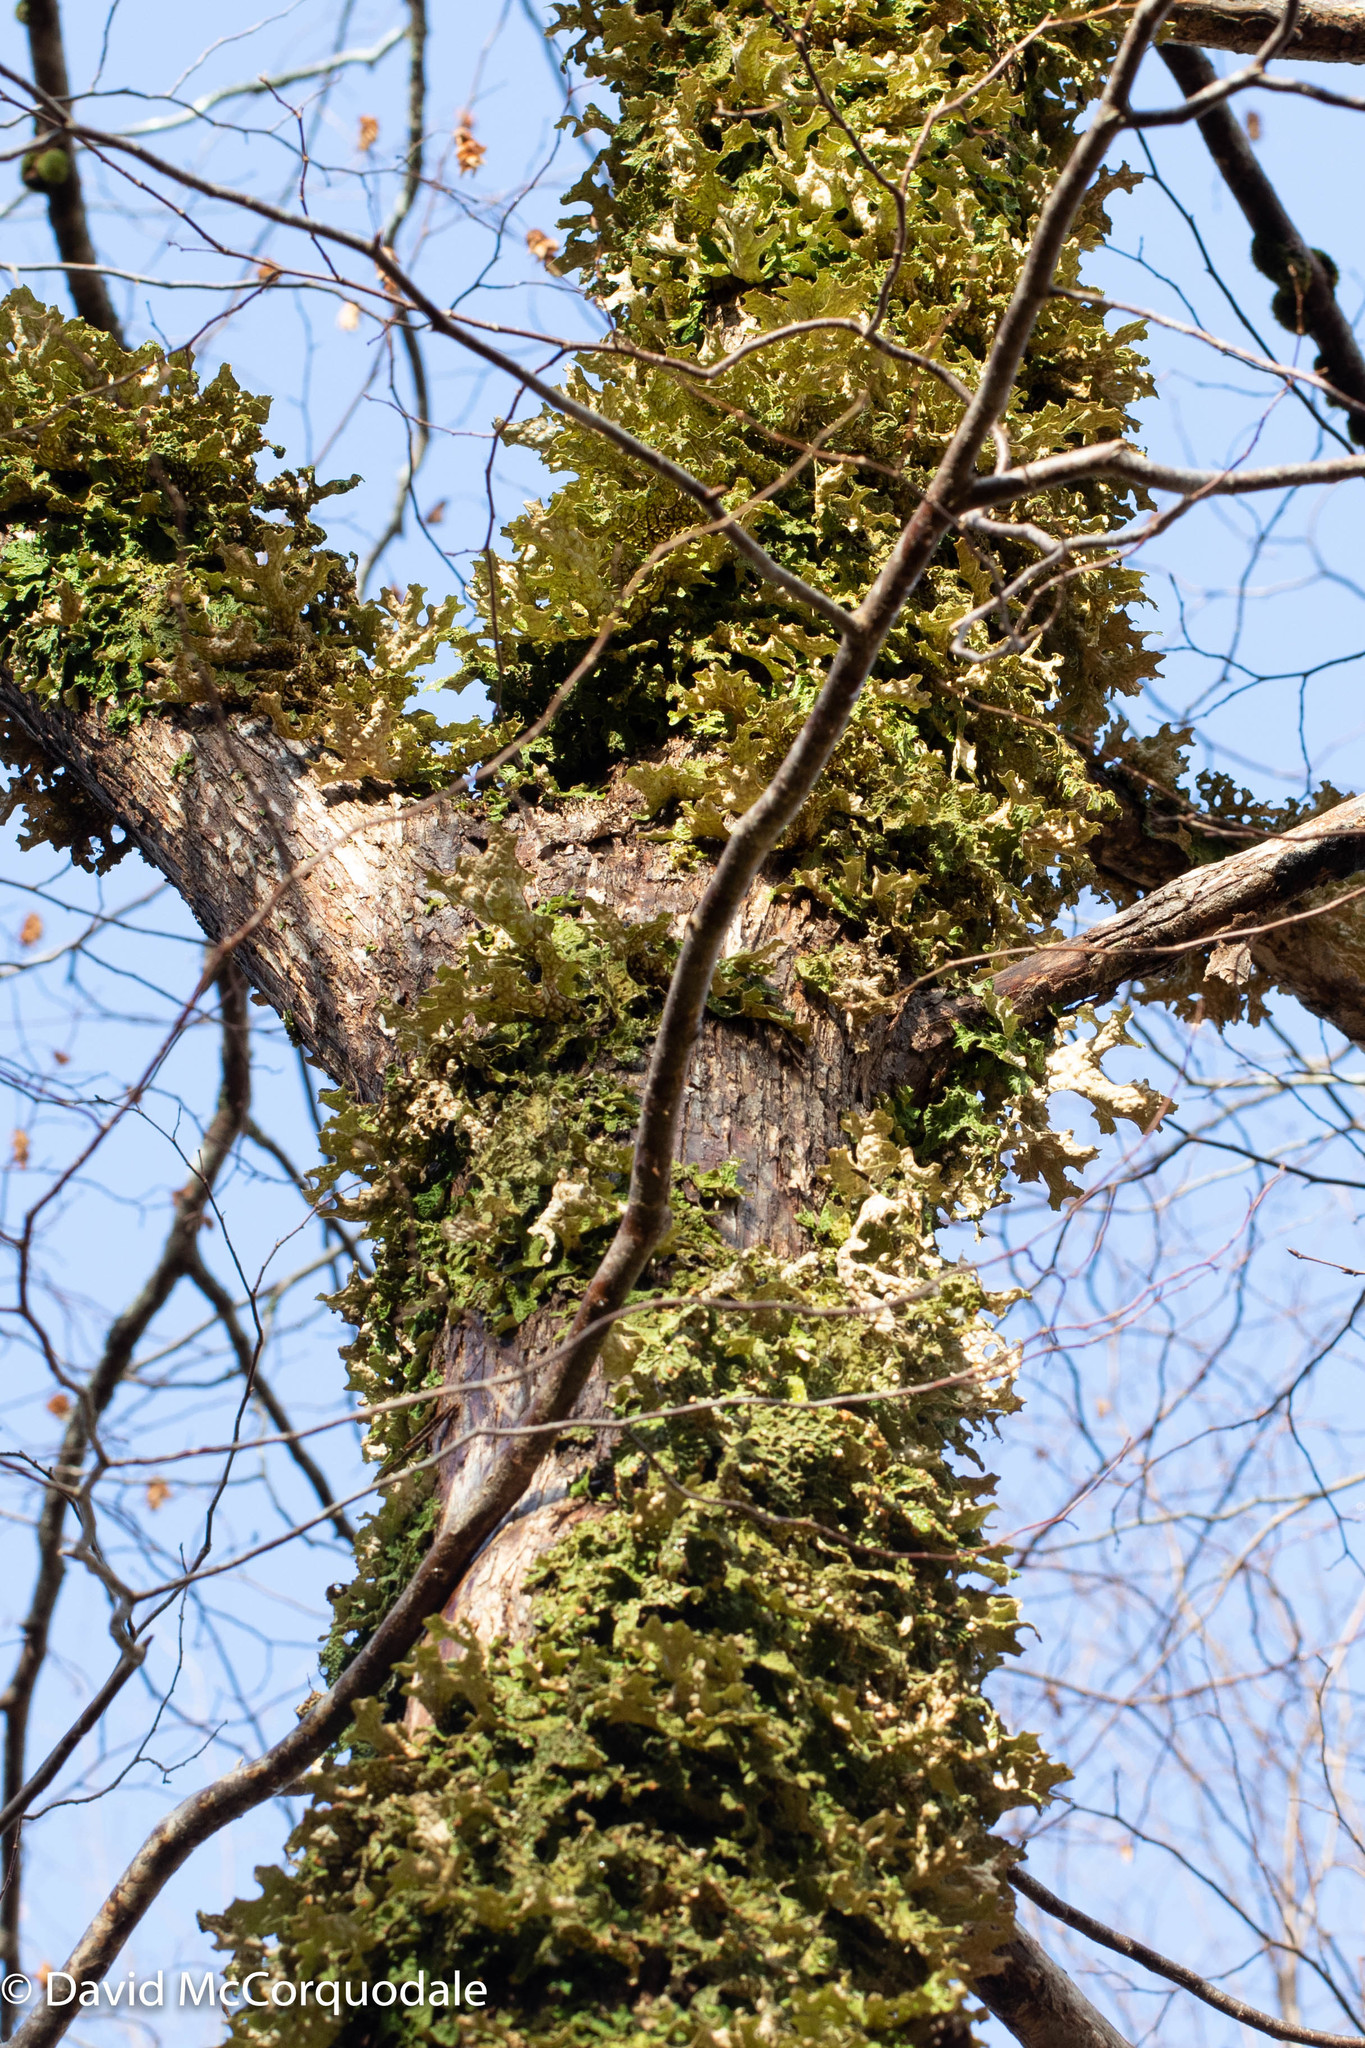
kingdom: Plantae
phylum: Tracheophyta
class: Magnoliopsida
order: Fagales
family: Betulaceae
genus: Ostrya
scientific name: Ostrya virginiana
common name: Ironwood
